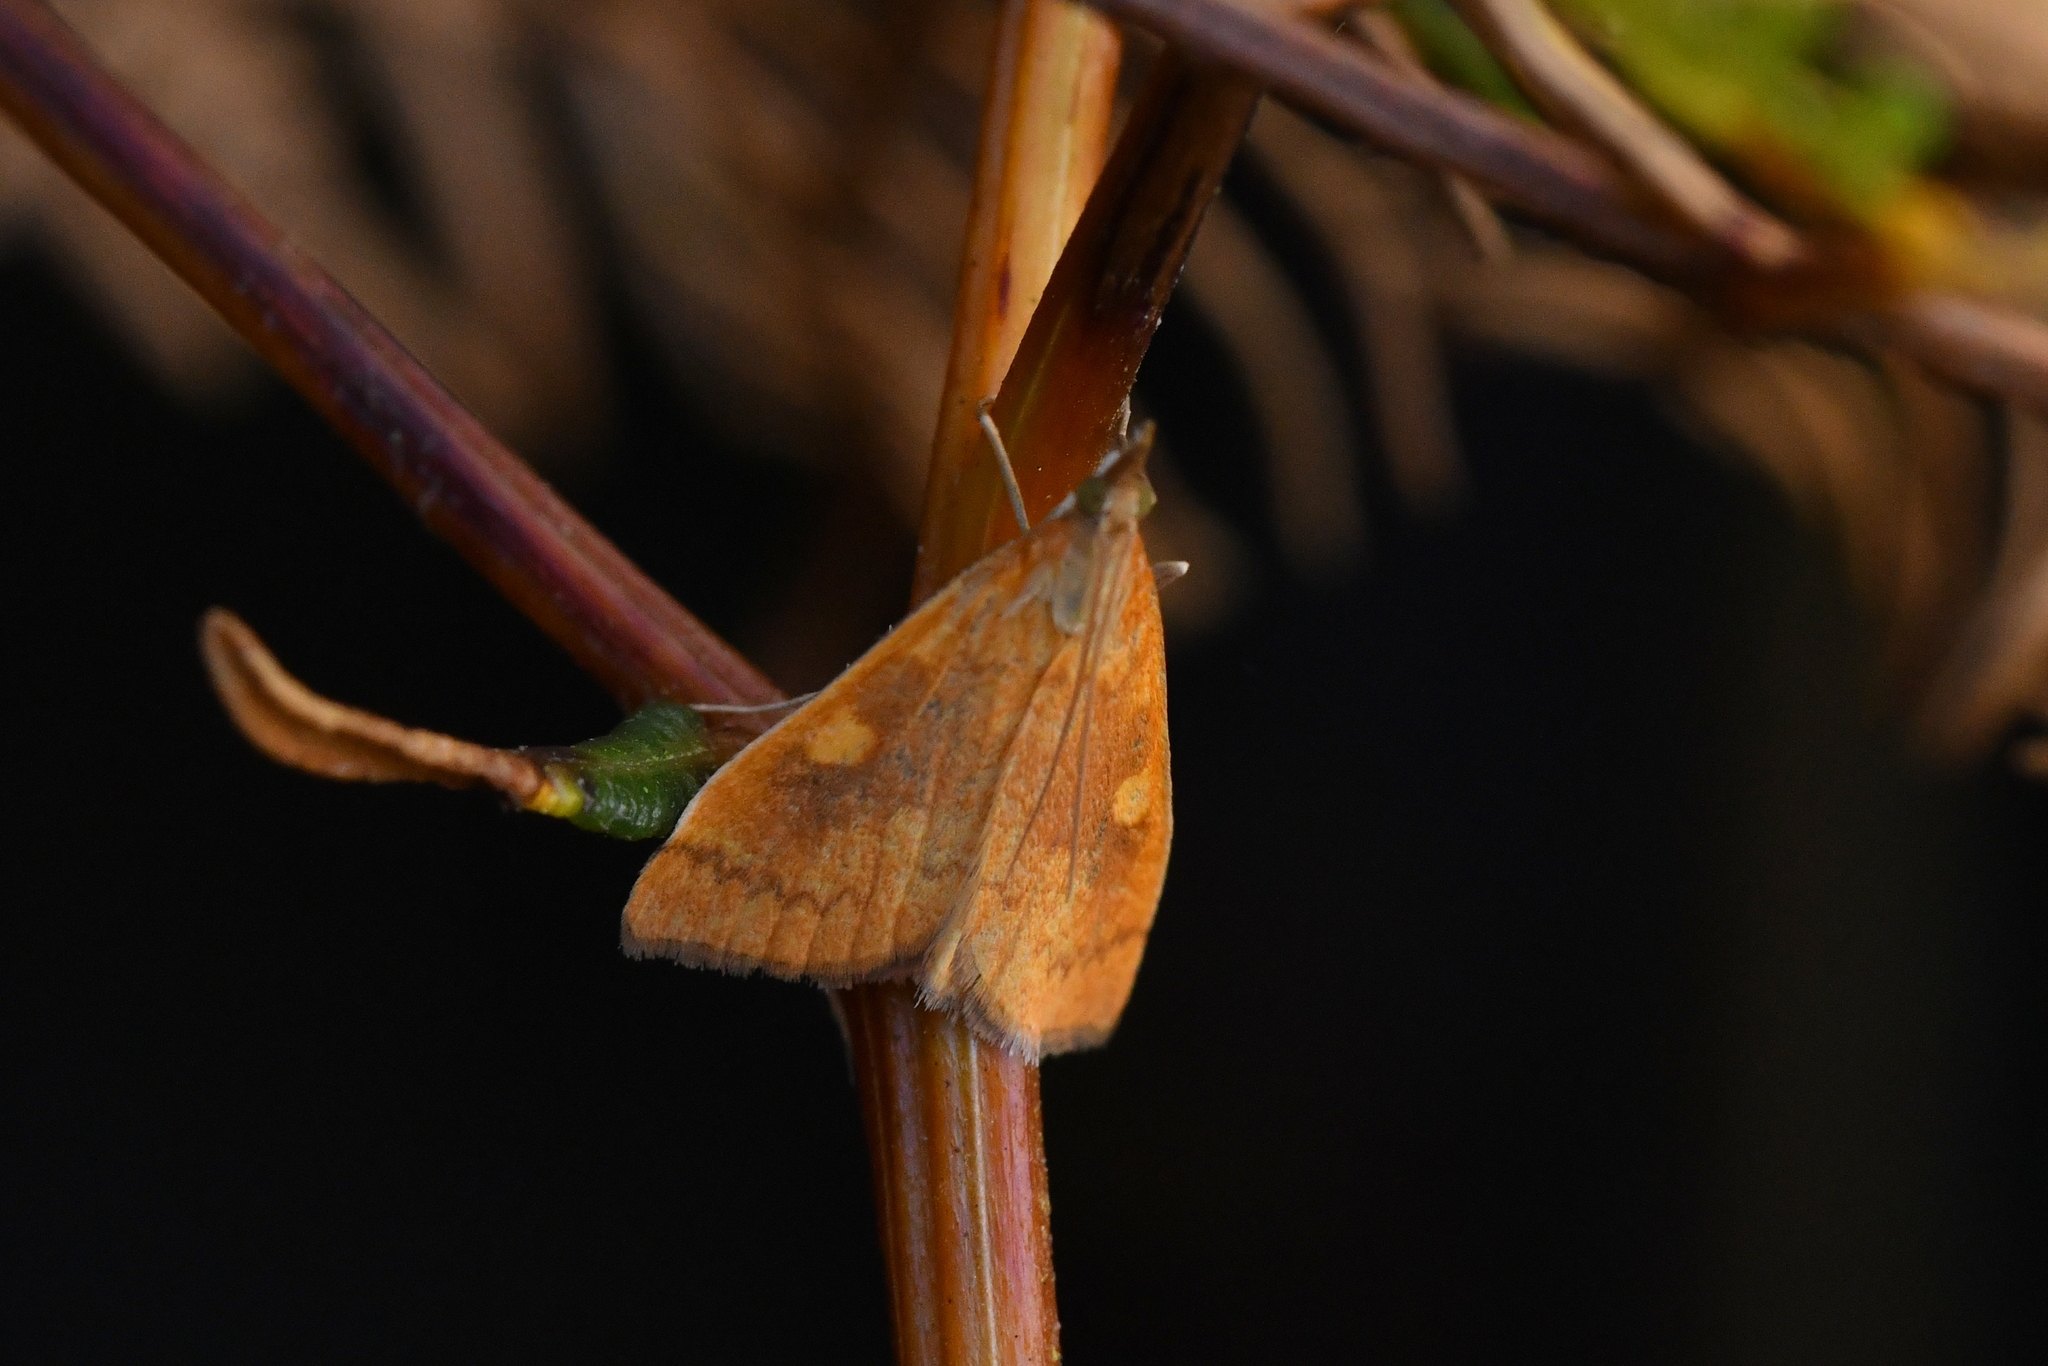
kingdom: Animalia
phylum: Arthropoda
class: Insecta
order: Lepidoptera
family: Crambidae
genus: Udea
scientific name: Udea Mnesictena flavidalis
